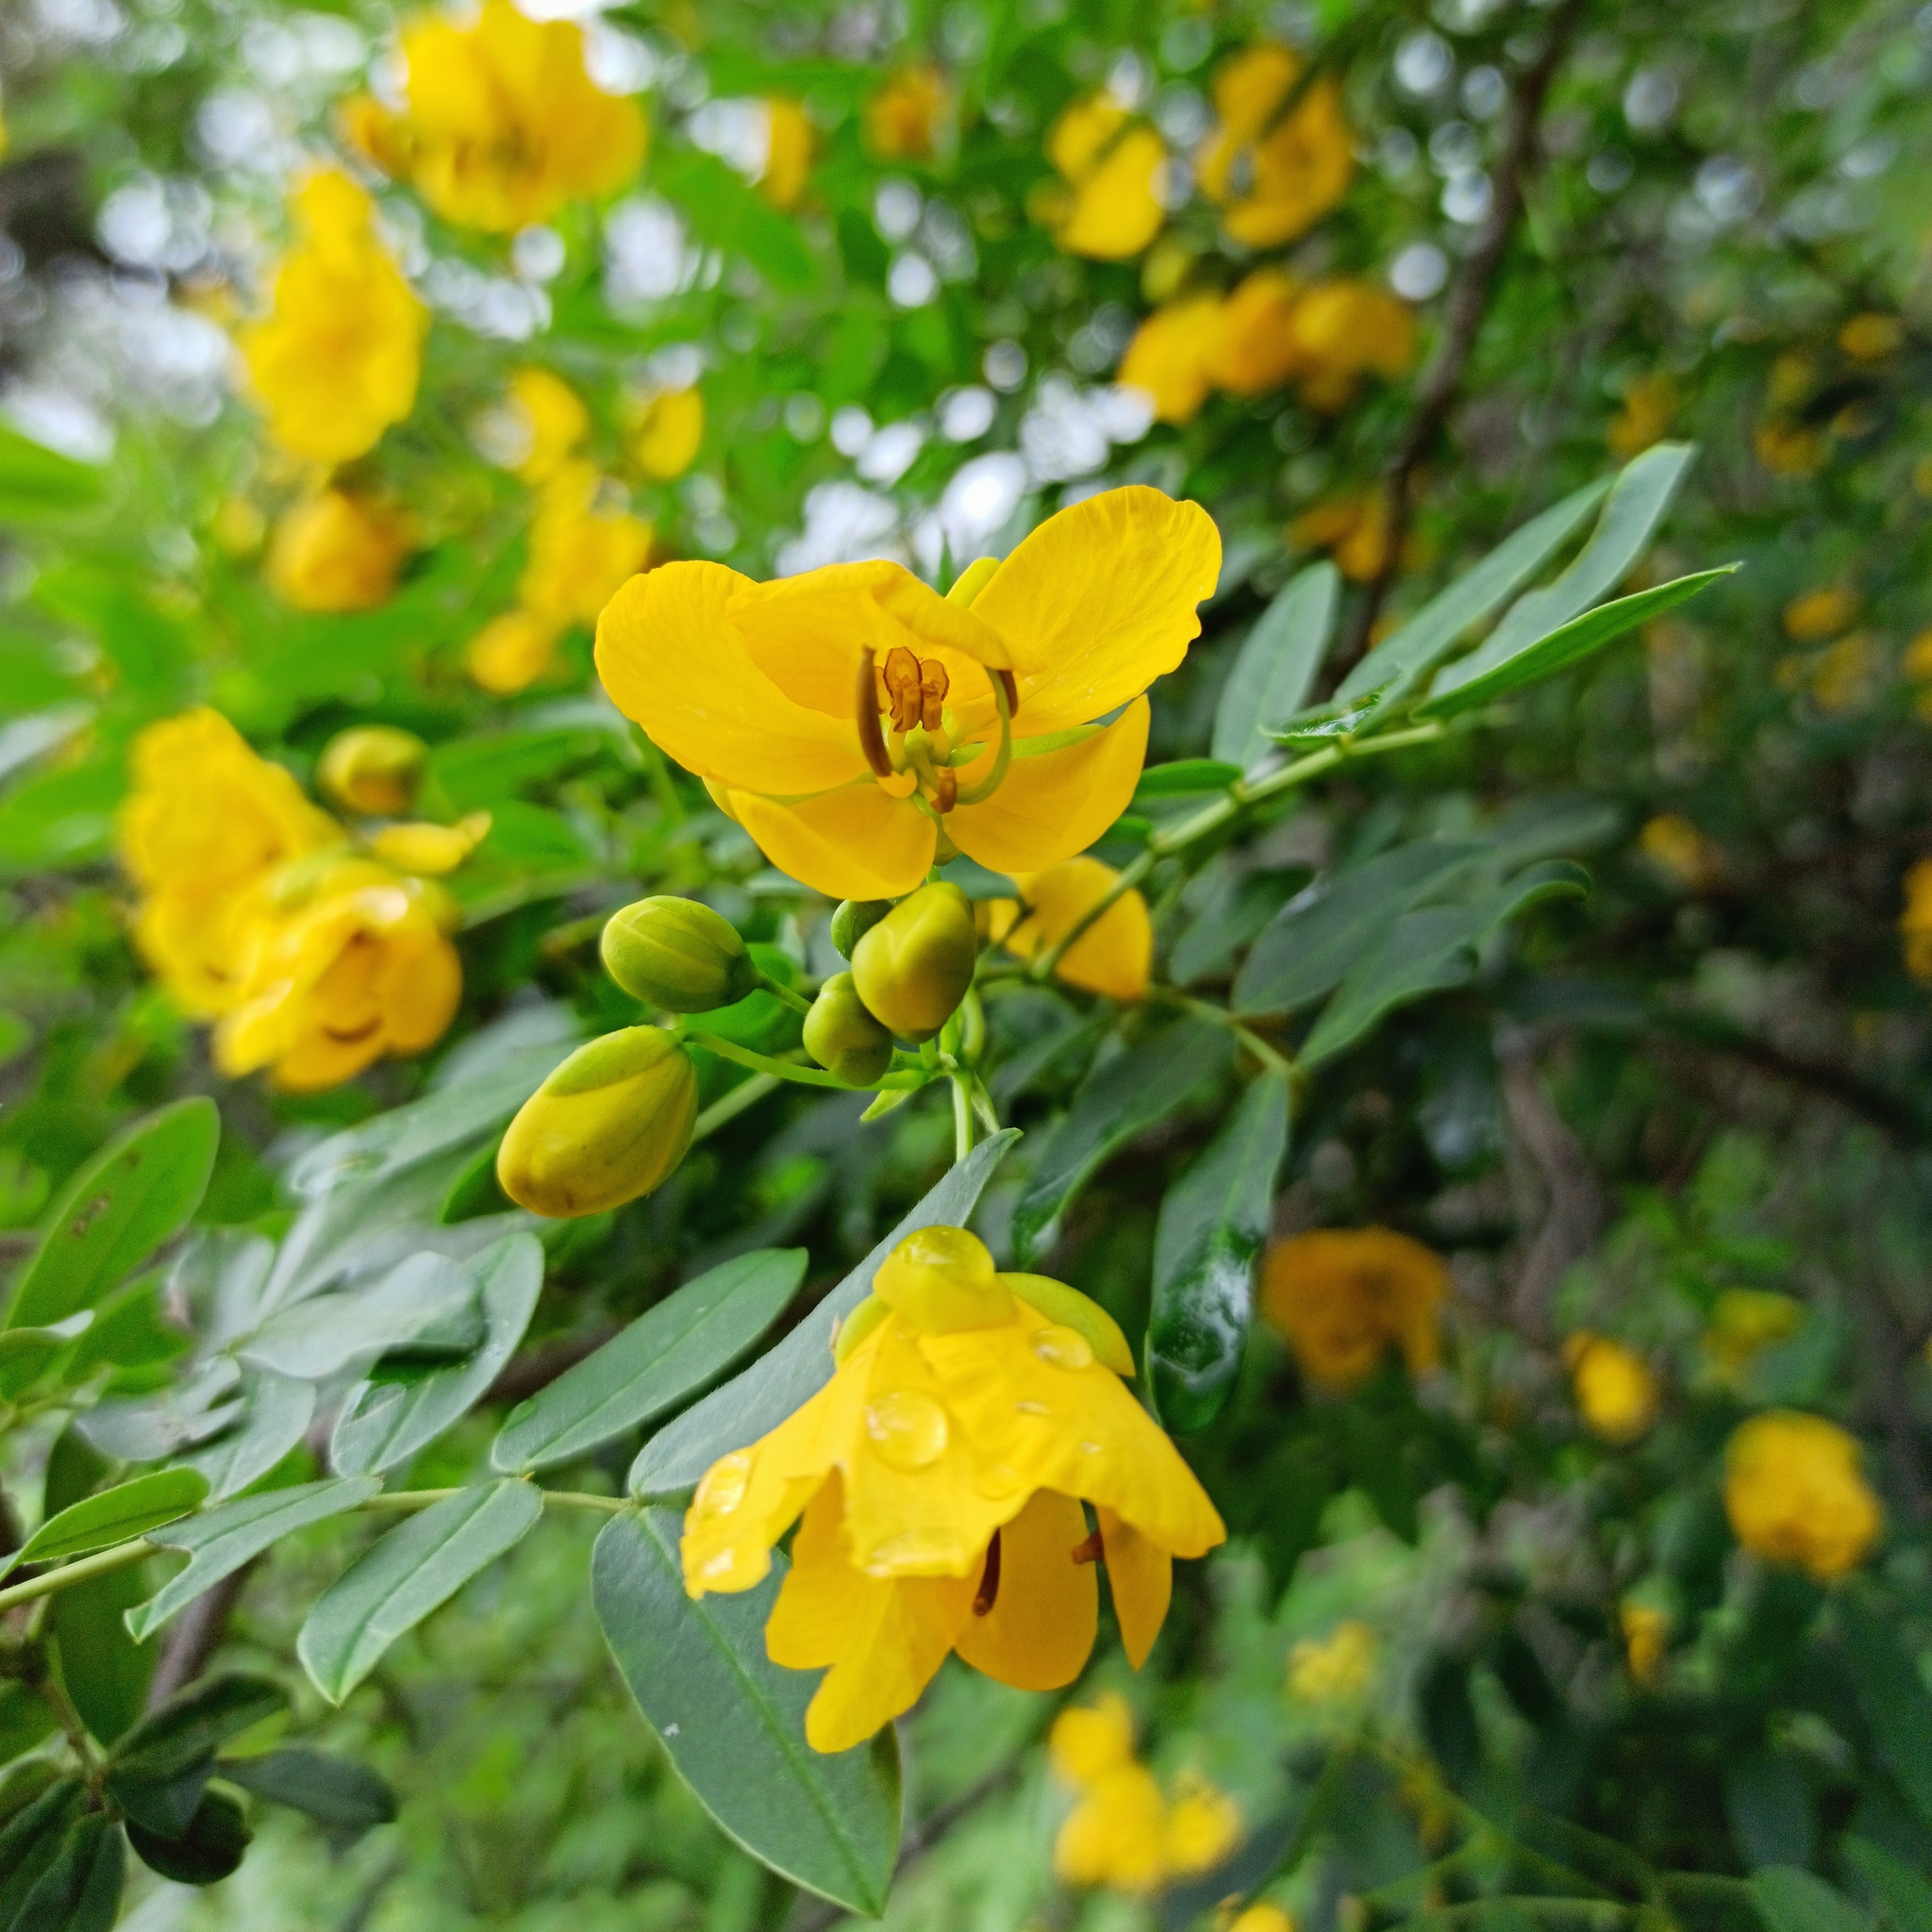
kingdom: Plantae
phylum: Tracheophyta
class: Magnoliopsida
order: Fabales
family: Fabaceae
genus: Senna
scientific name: Senna floribunda
